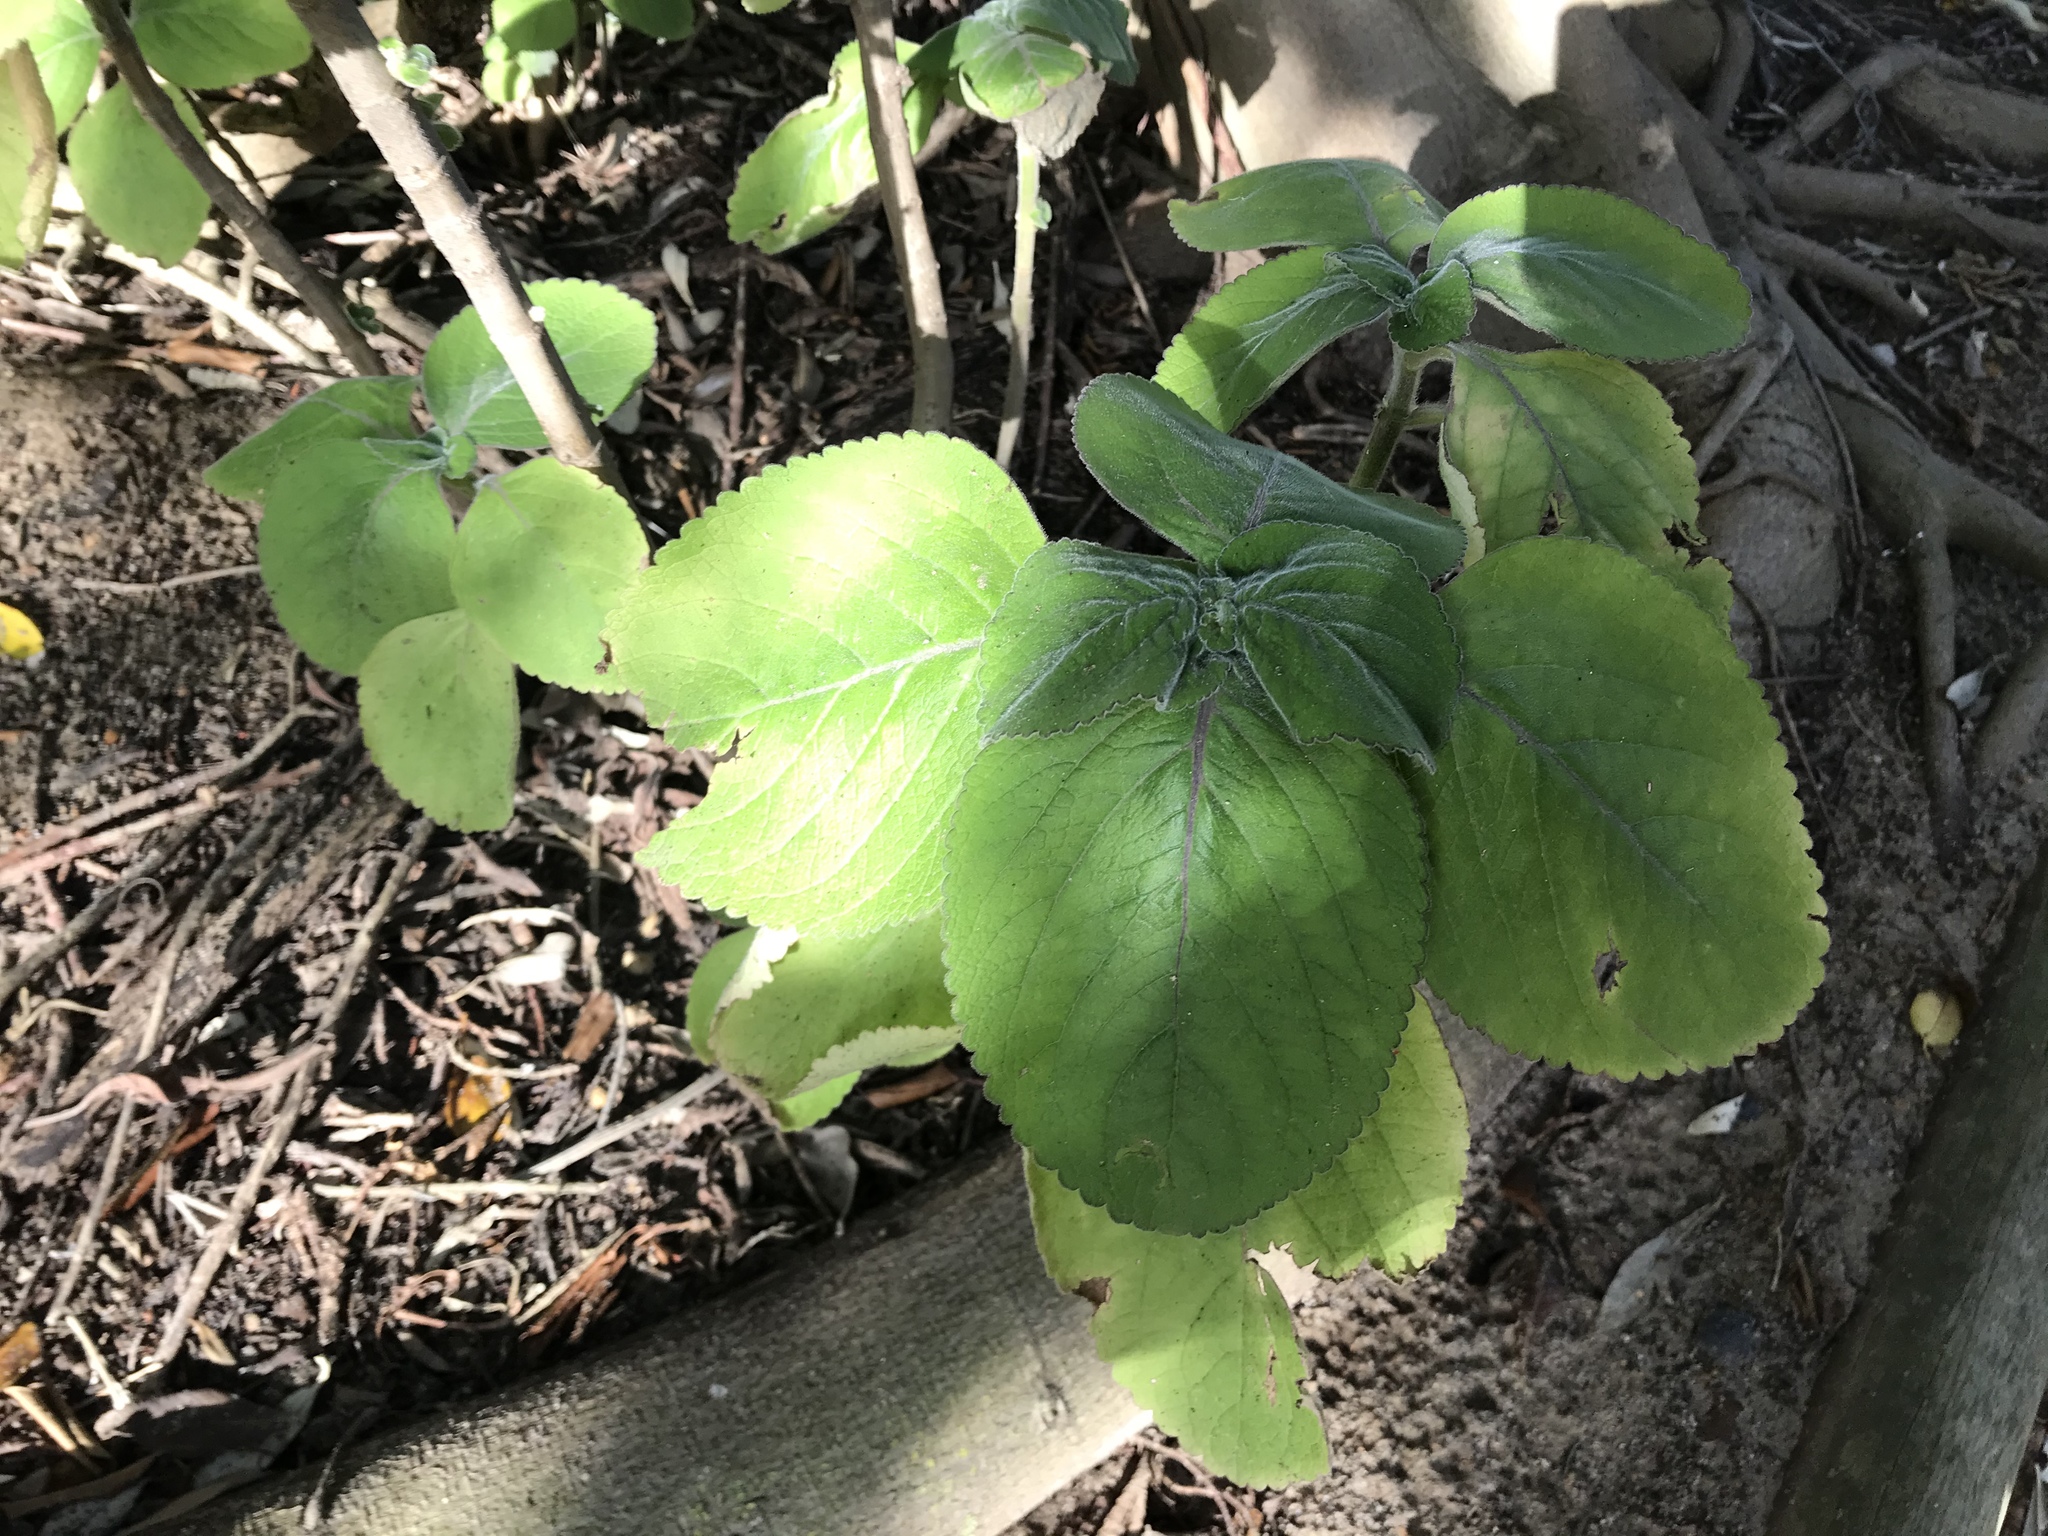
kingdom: Plantae
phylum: Tracheophyta
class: Magnoliopsida
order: Lamiales
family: Lamiaceae
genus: Coleus
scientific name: Coleus barbatus
